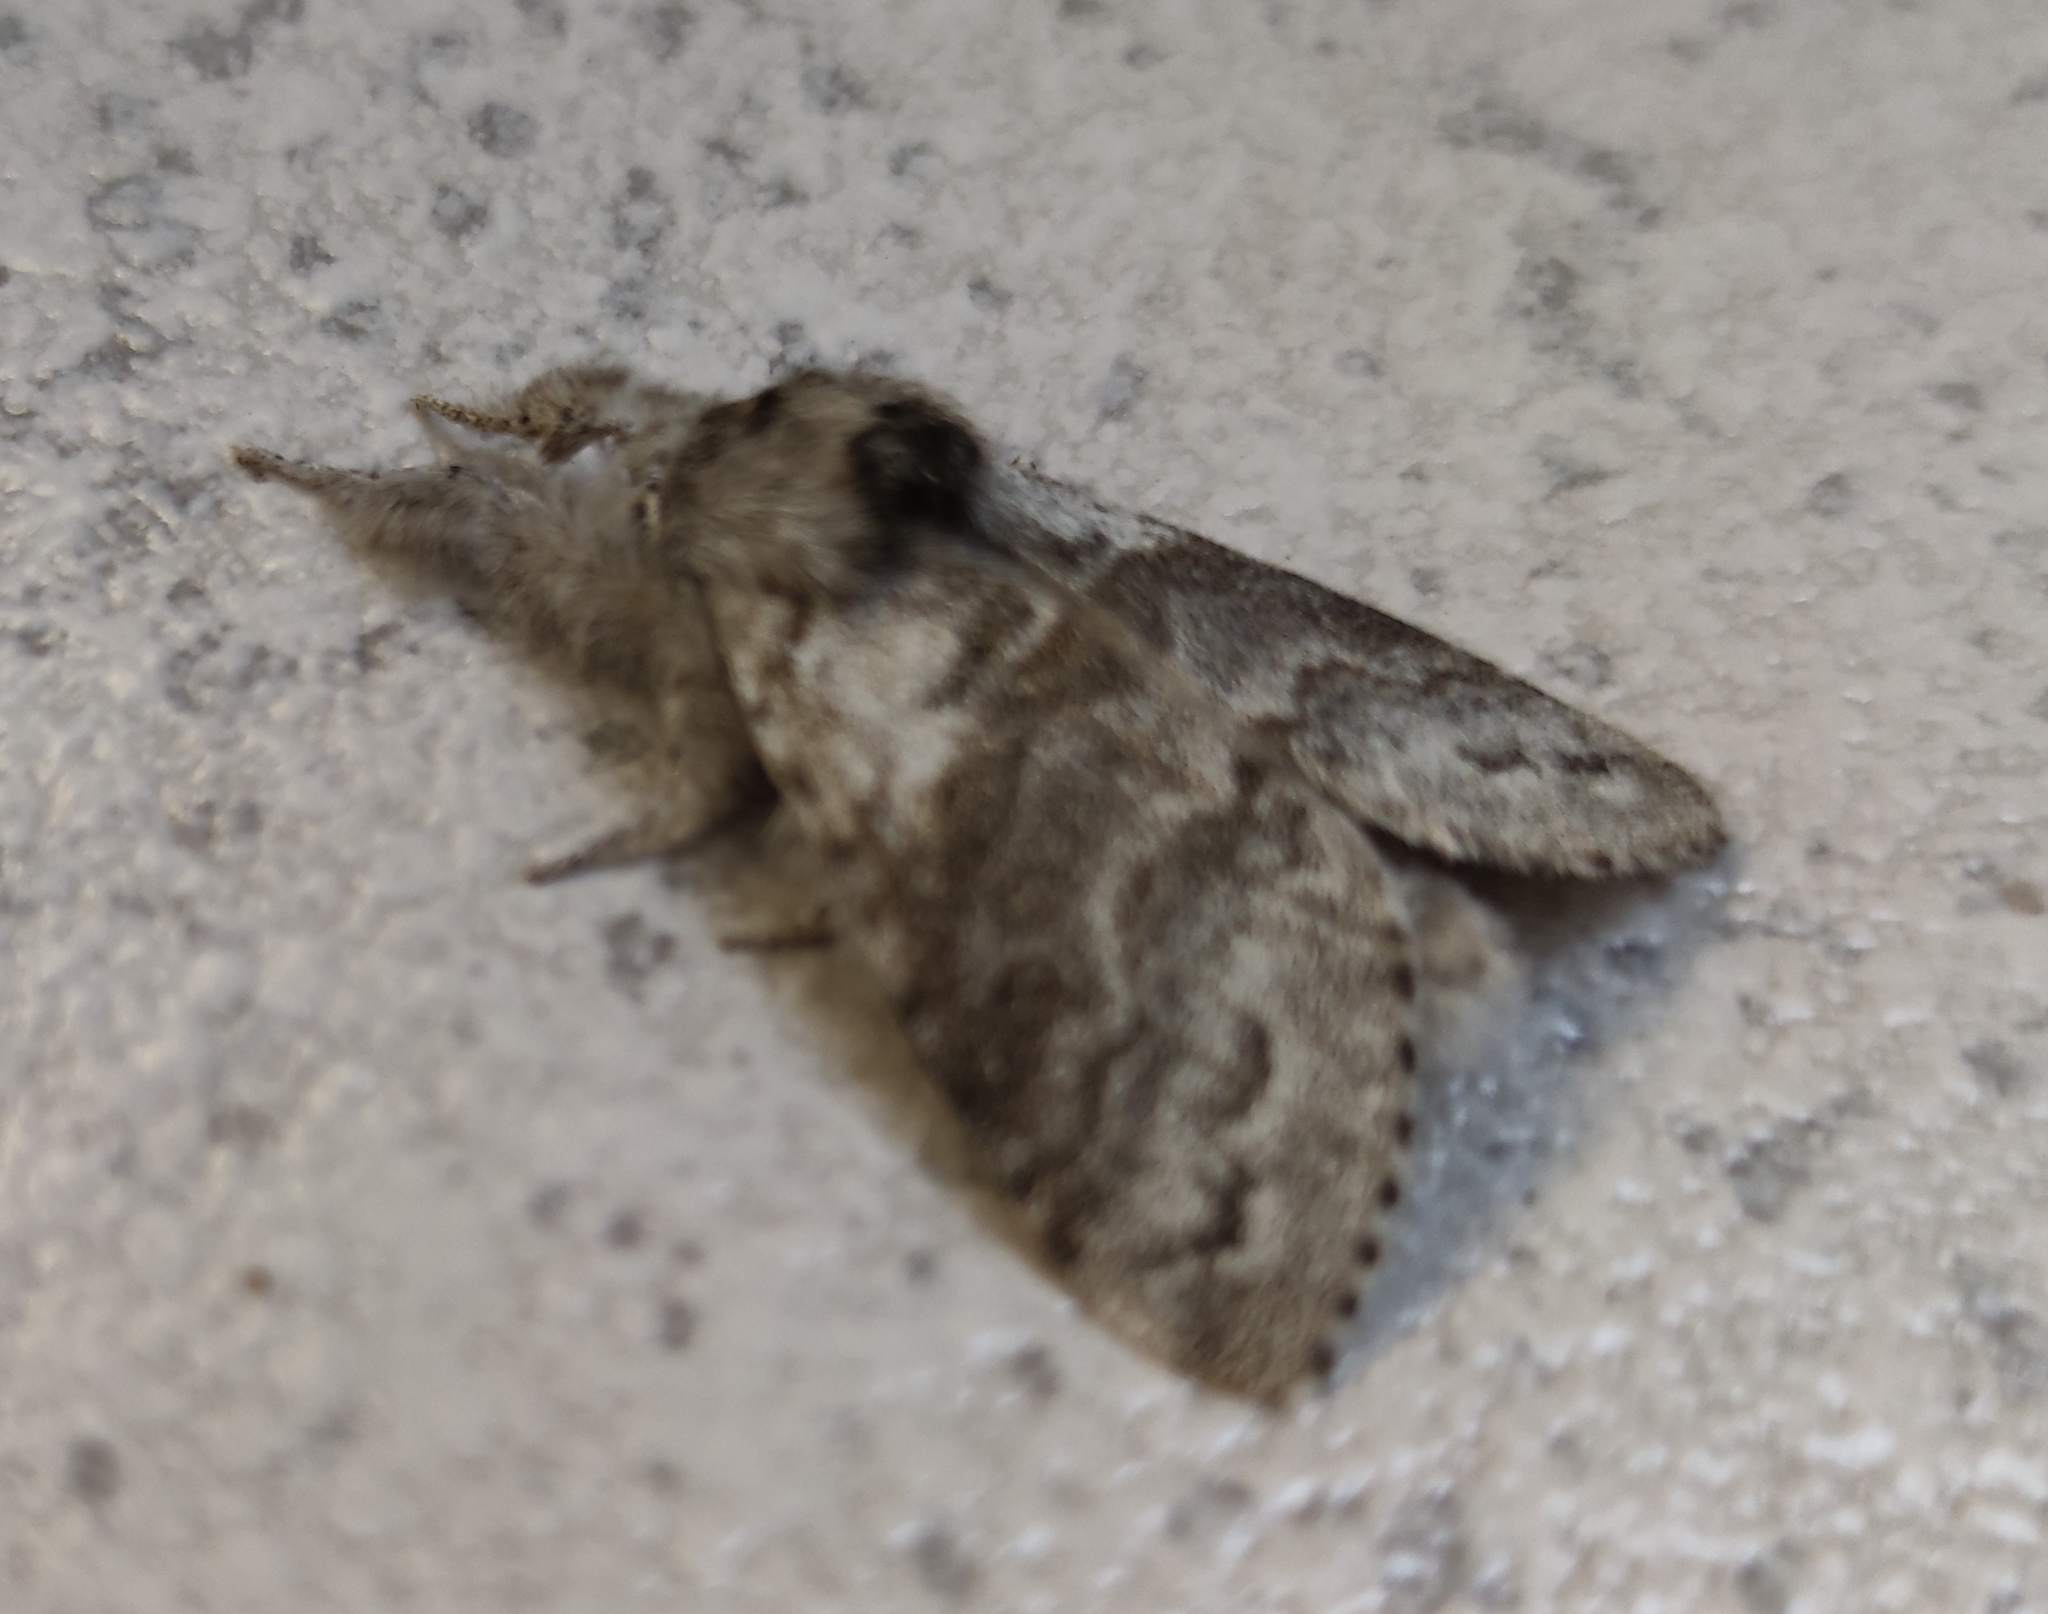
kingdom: Animalia
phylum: Arthropoda
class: Insecta
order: Lepidoptera
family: Erebidae
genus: Calliteara
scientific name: Calliteara pudibunda
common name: Pale tussock
